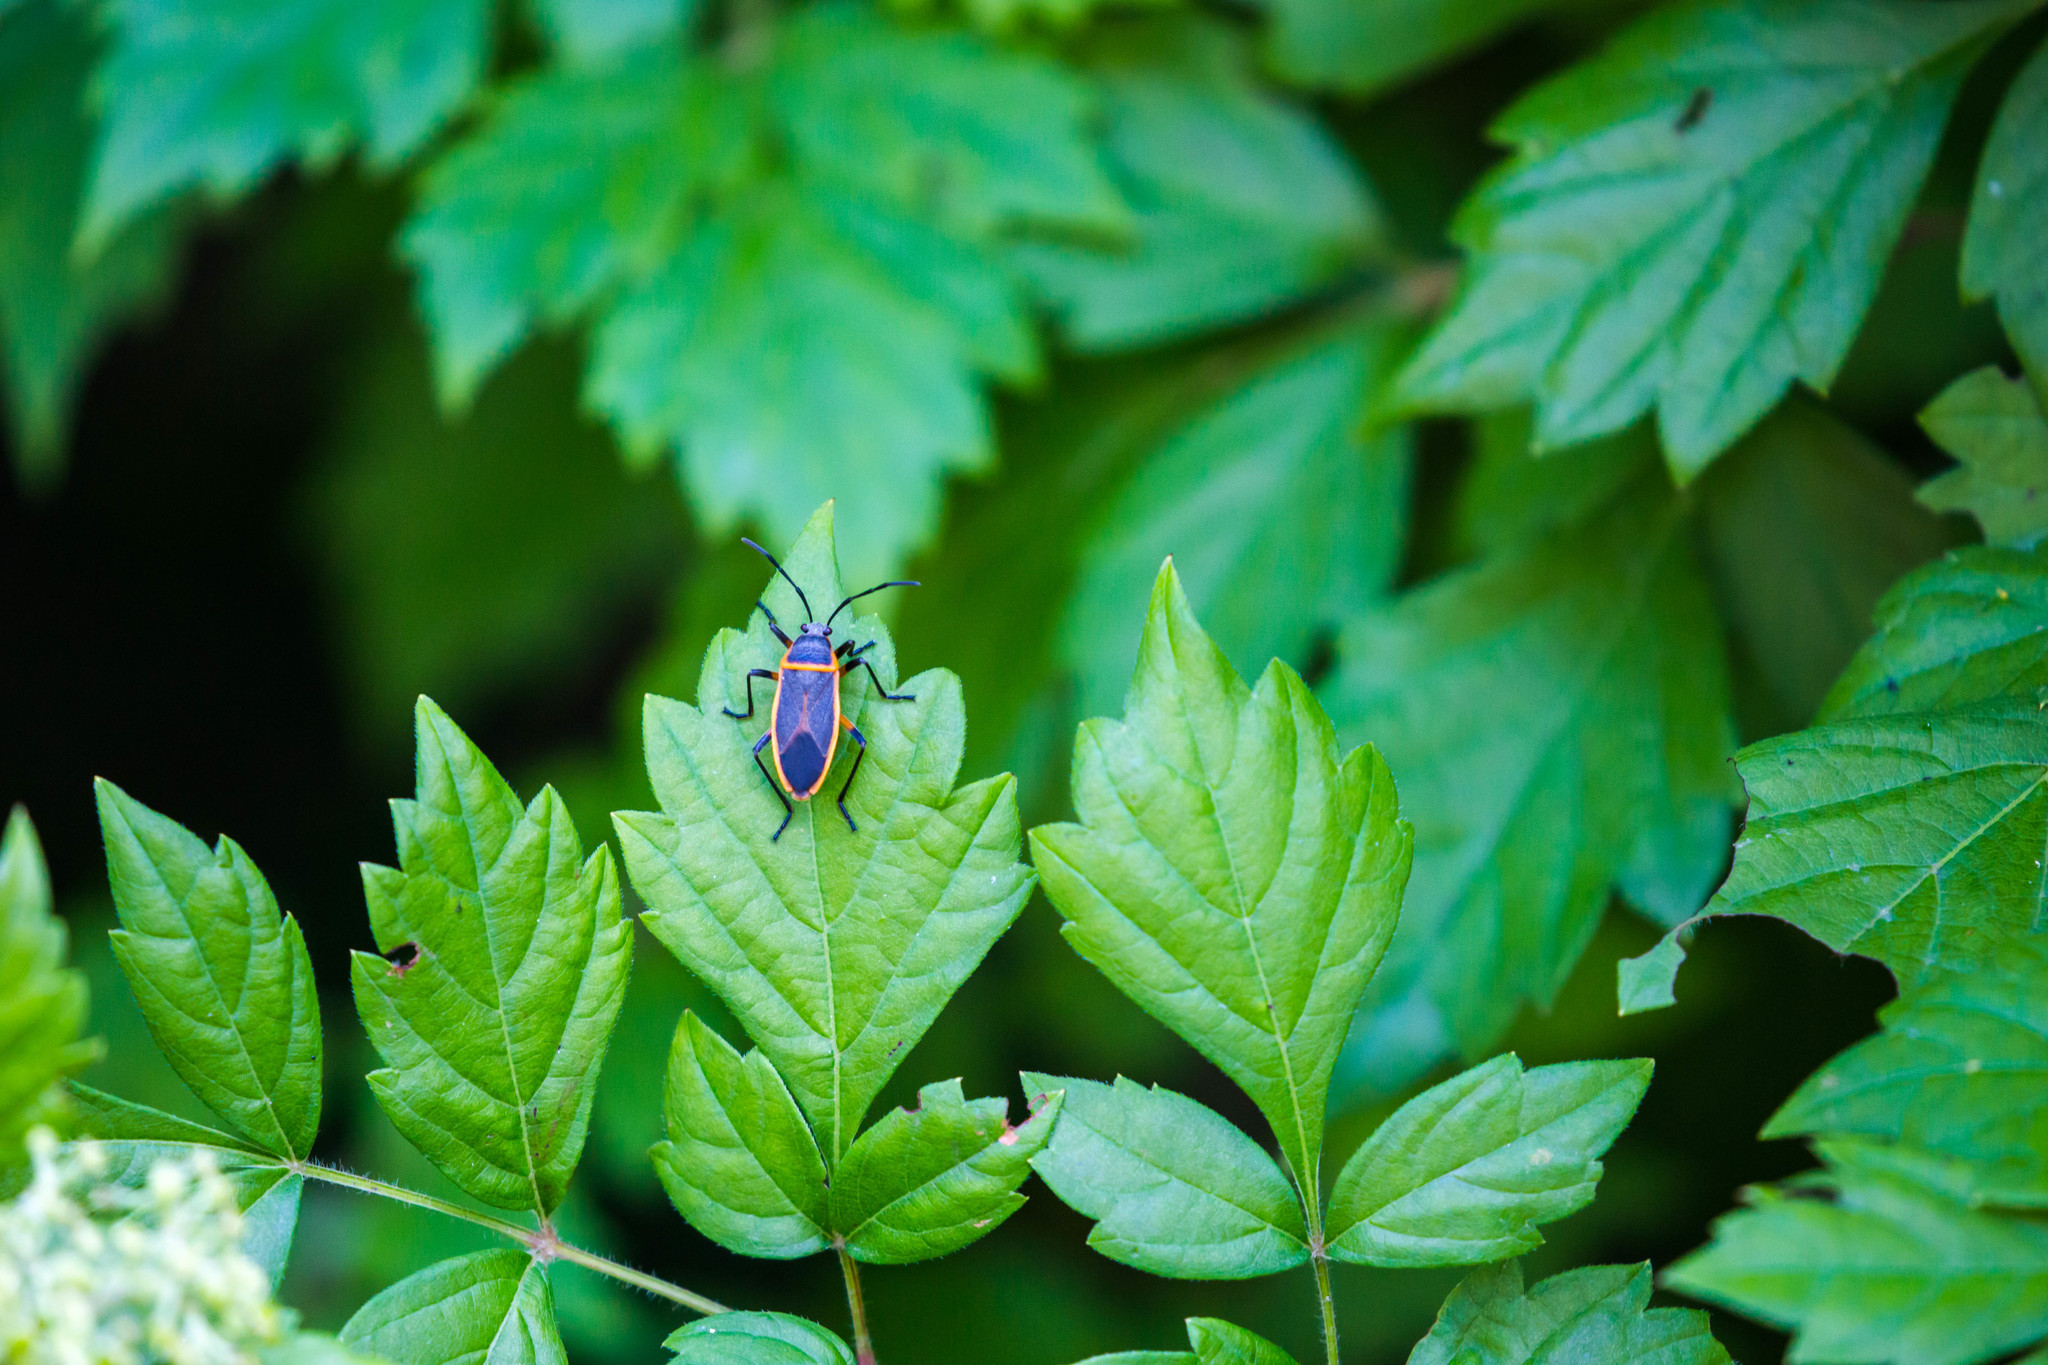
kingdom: Animalia
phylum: Arthropoda
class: Insecta
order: Hemiptera
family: Largidae
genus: Largus
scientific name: Largus succinctus
